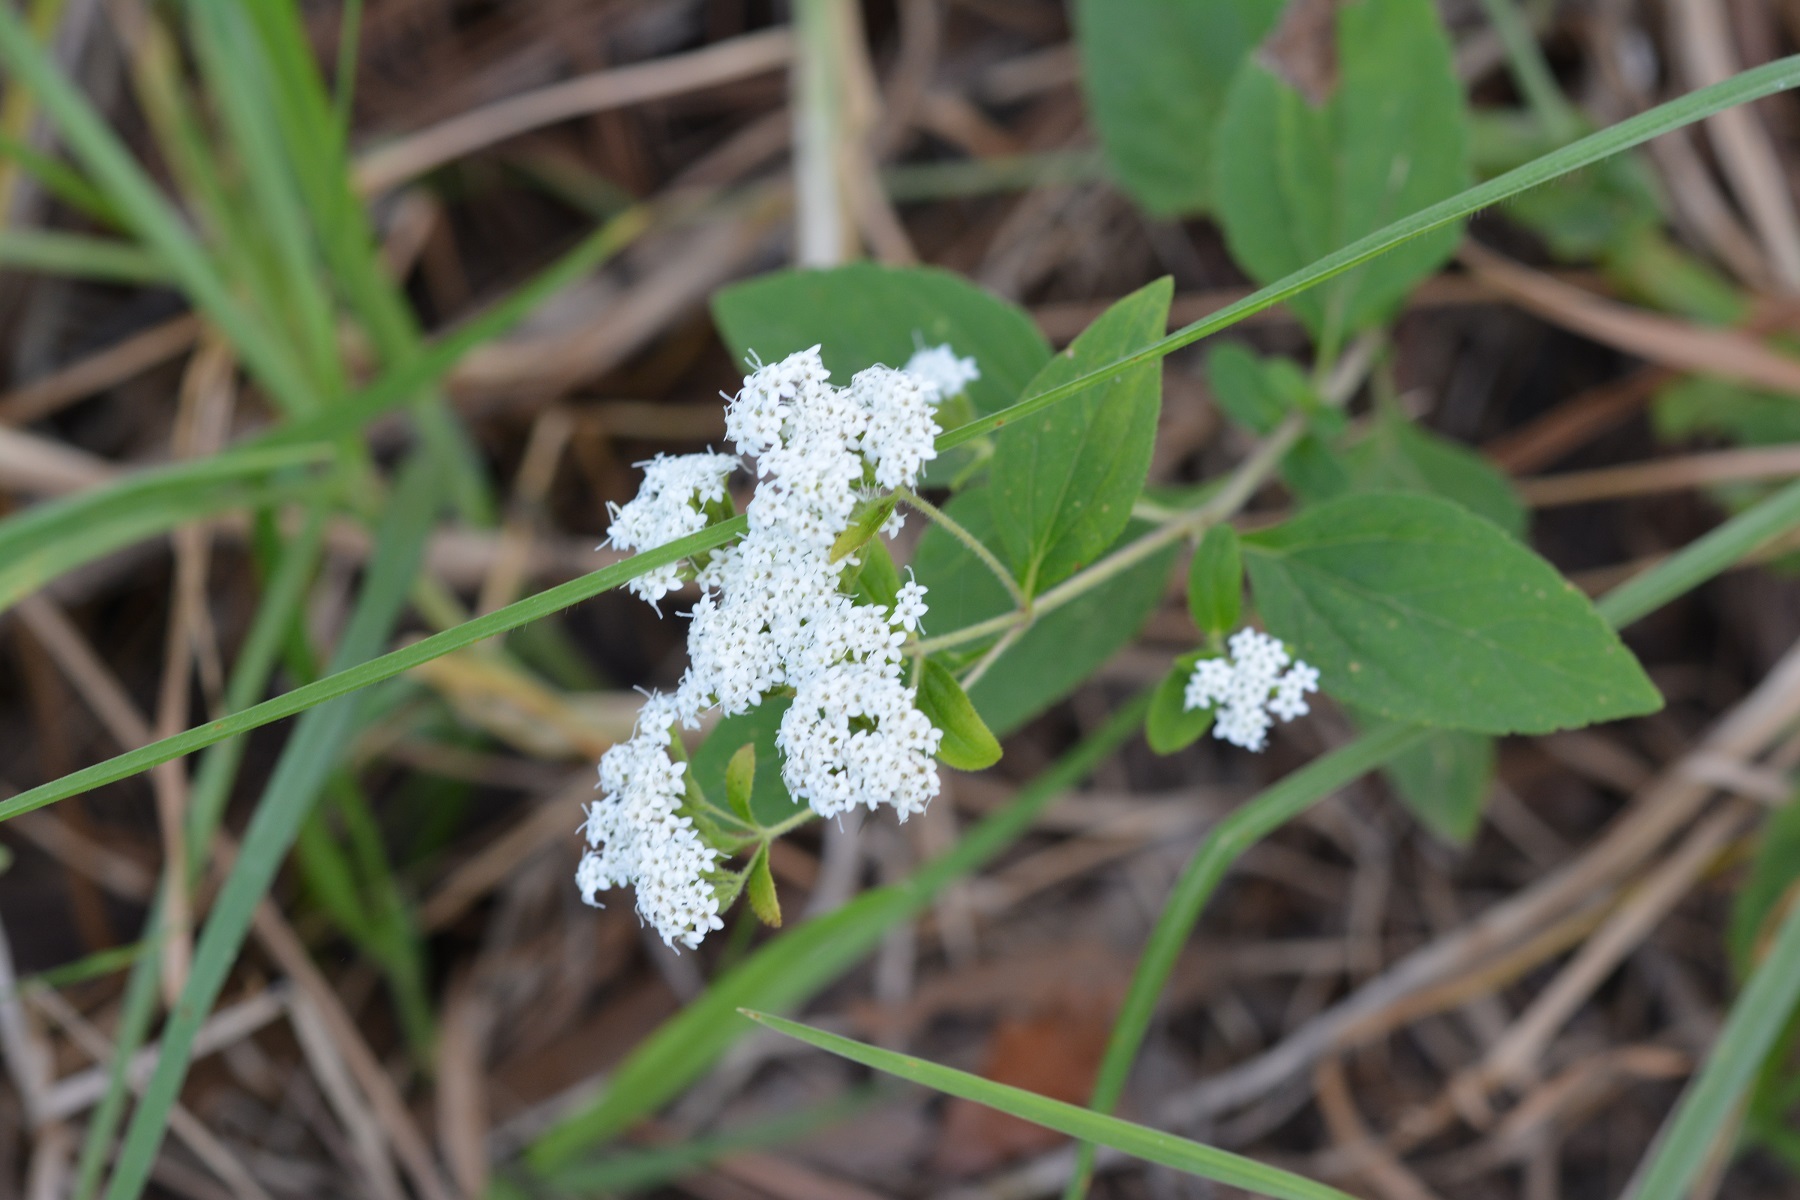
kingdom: Plantae
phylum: Tracheophyta
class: Magnoliopsida
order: Asterales
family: Asteraceae
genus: Stevia
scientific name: Stevia ovata
